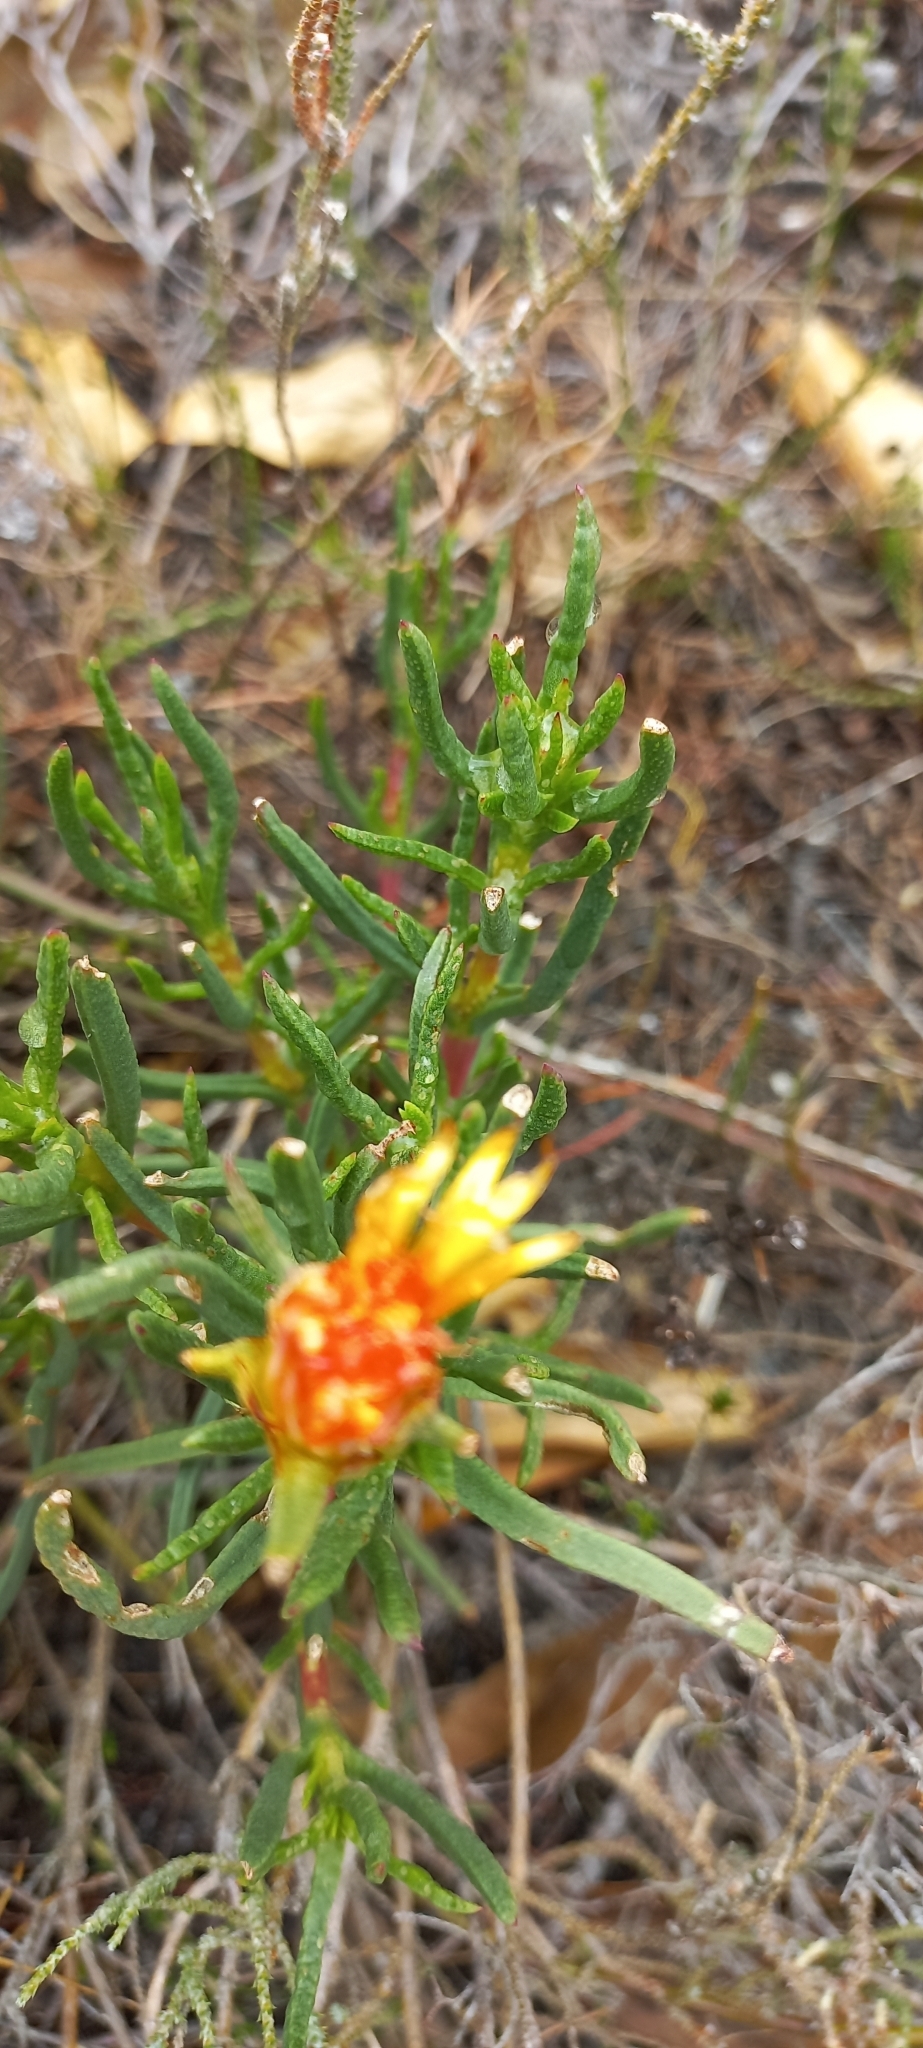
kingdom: Plantae
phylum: Tracheophyta
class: Magnoliopsida
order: Caryophyllales
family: Aizoaceae
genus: Lampranthus
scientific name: Lampranthus bicolor
